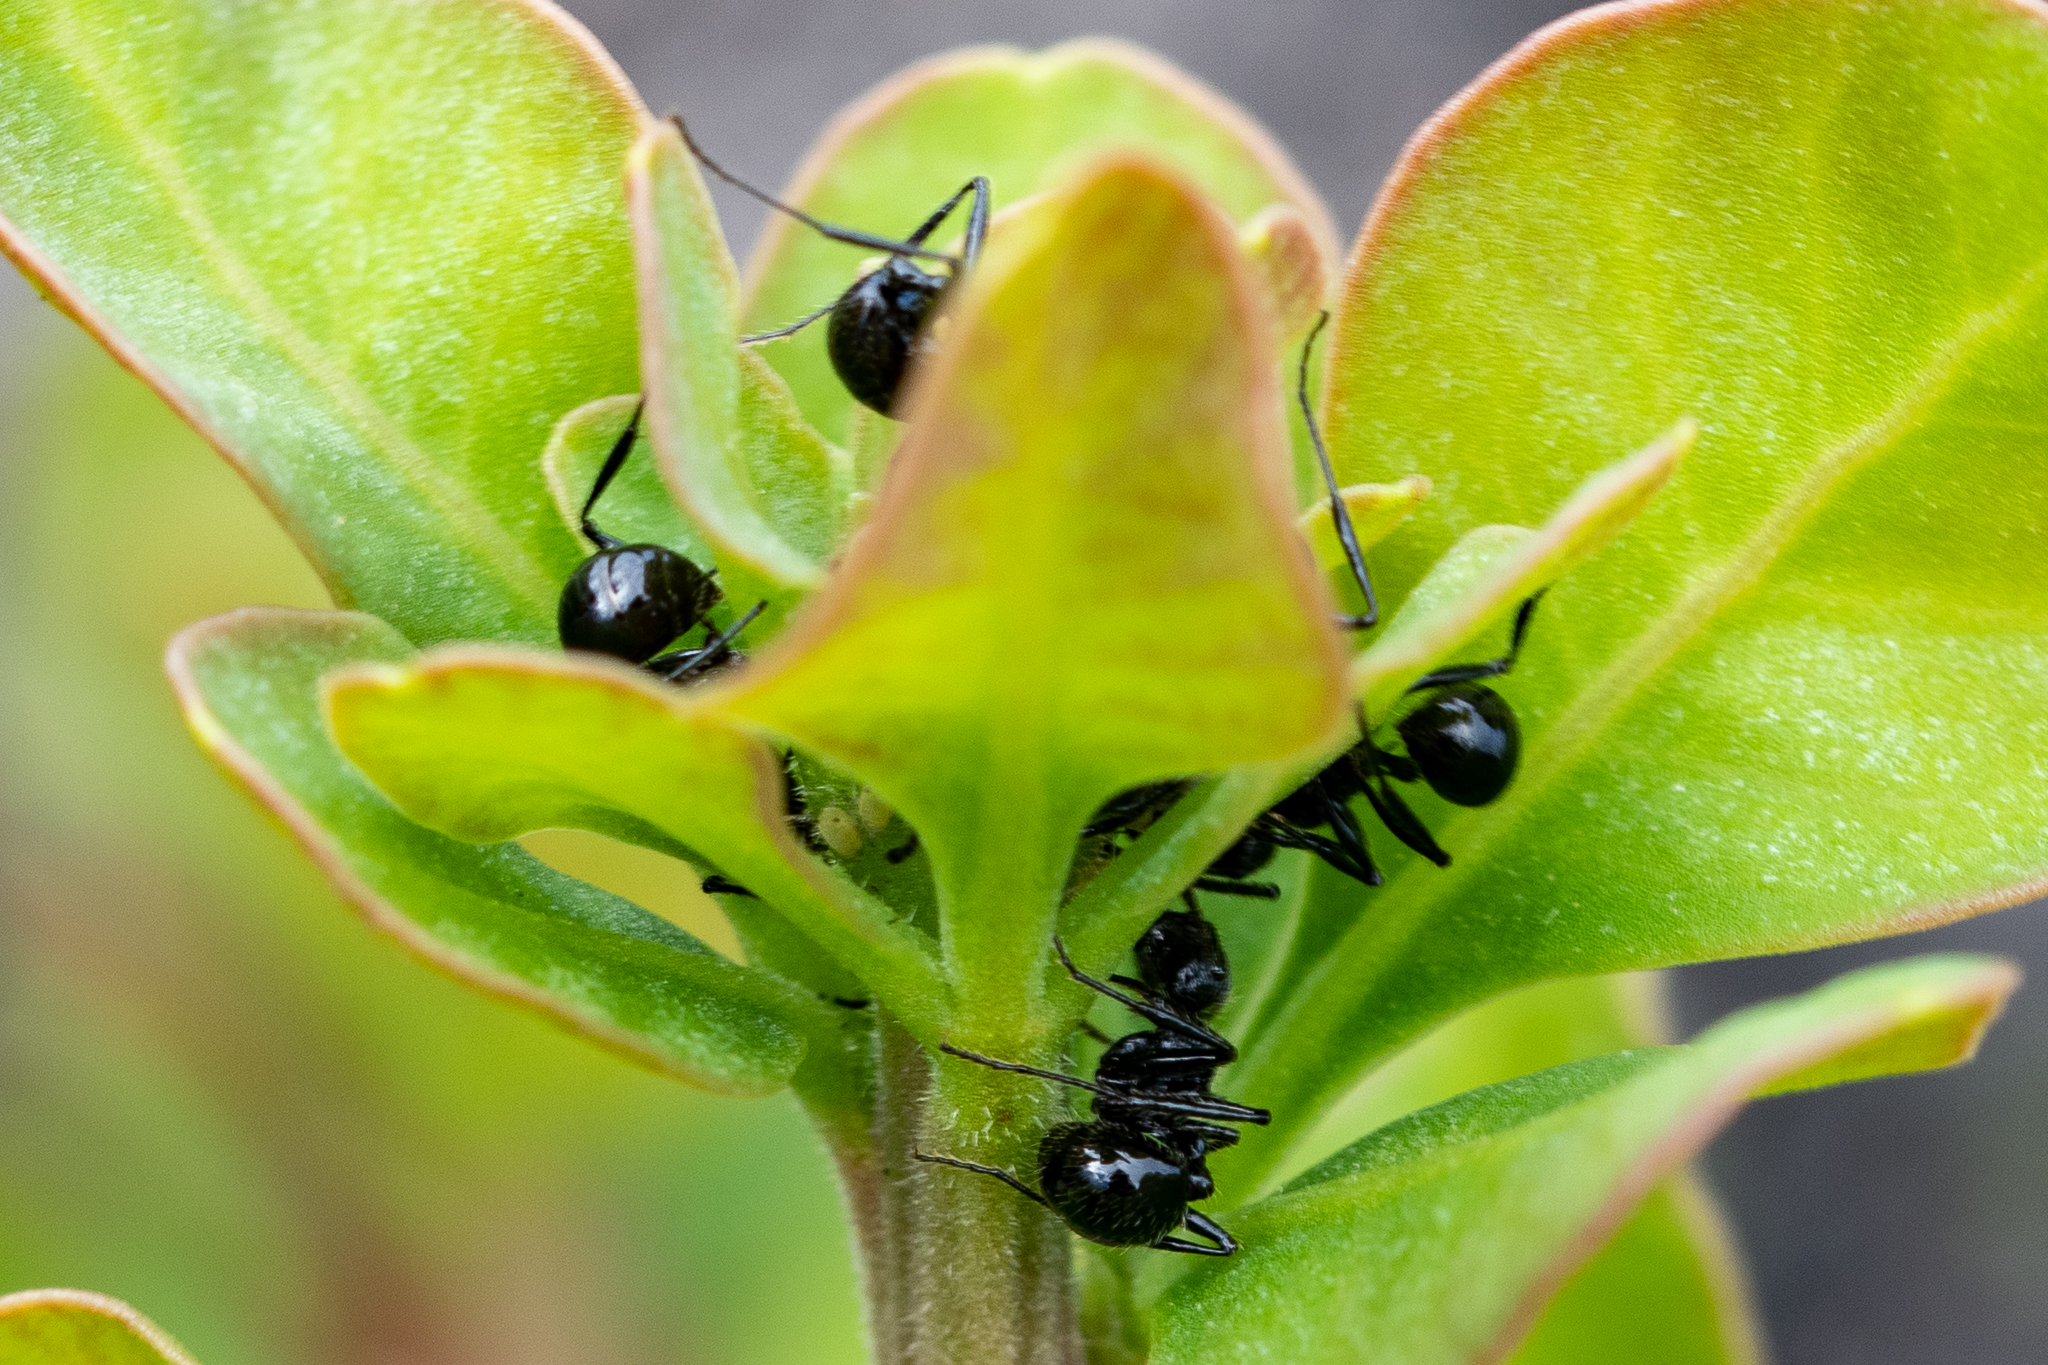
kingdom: Animalia
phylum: Arthropoda
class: Insecta
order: Hymenoptera
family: Formicidae
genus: Myrmicaria
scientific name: Myrmicaria nigra
